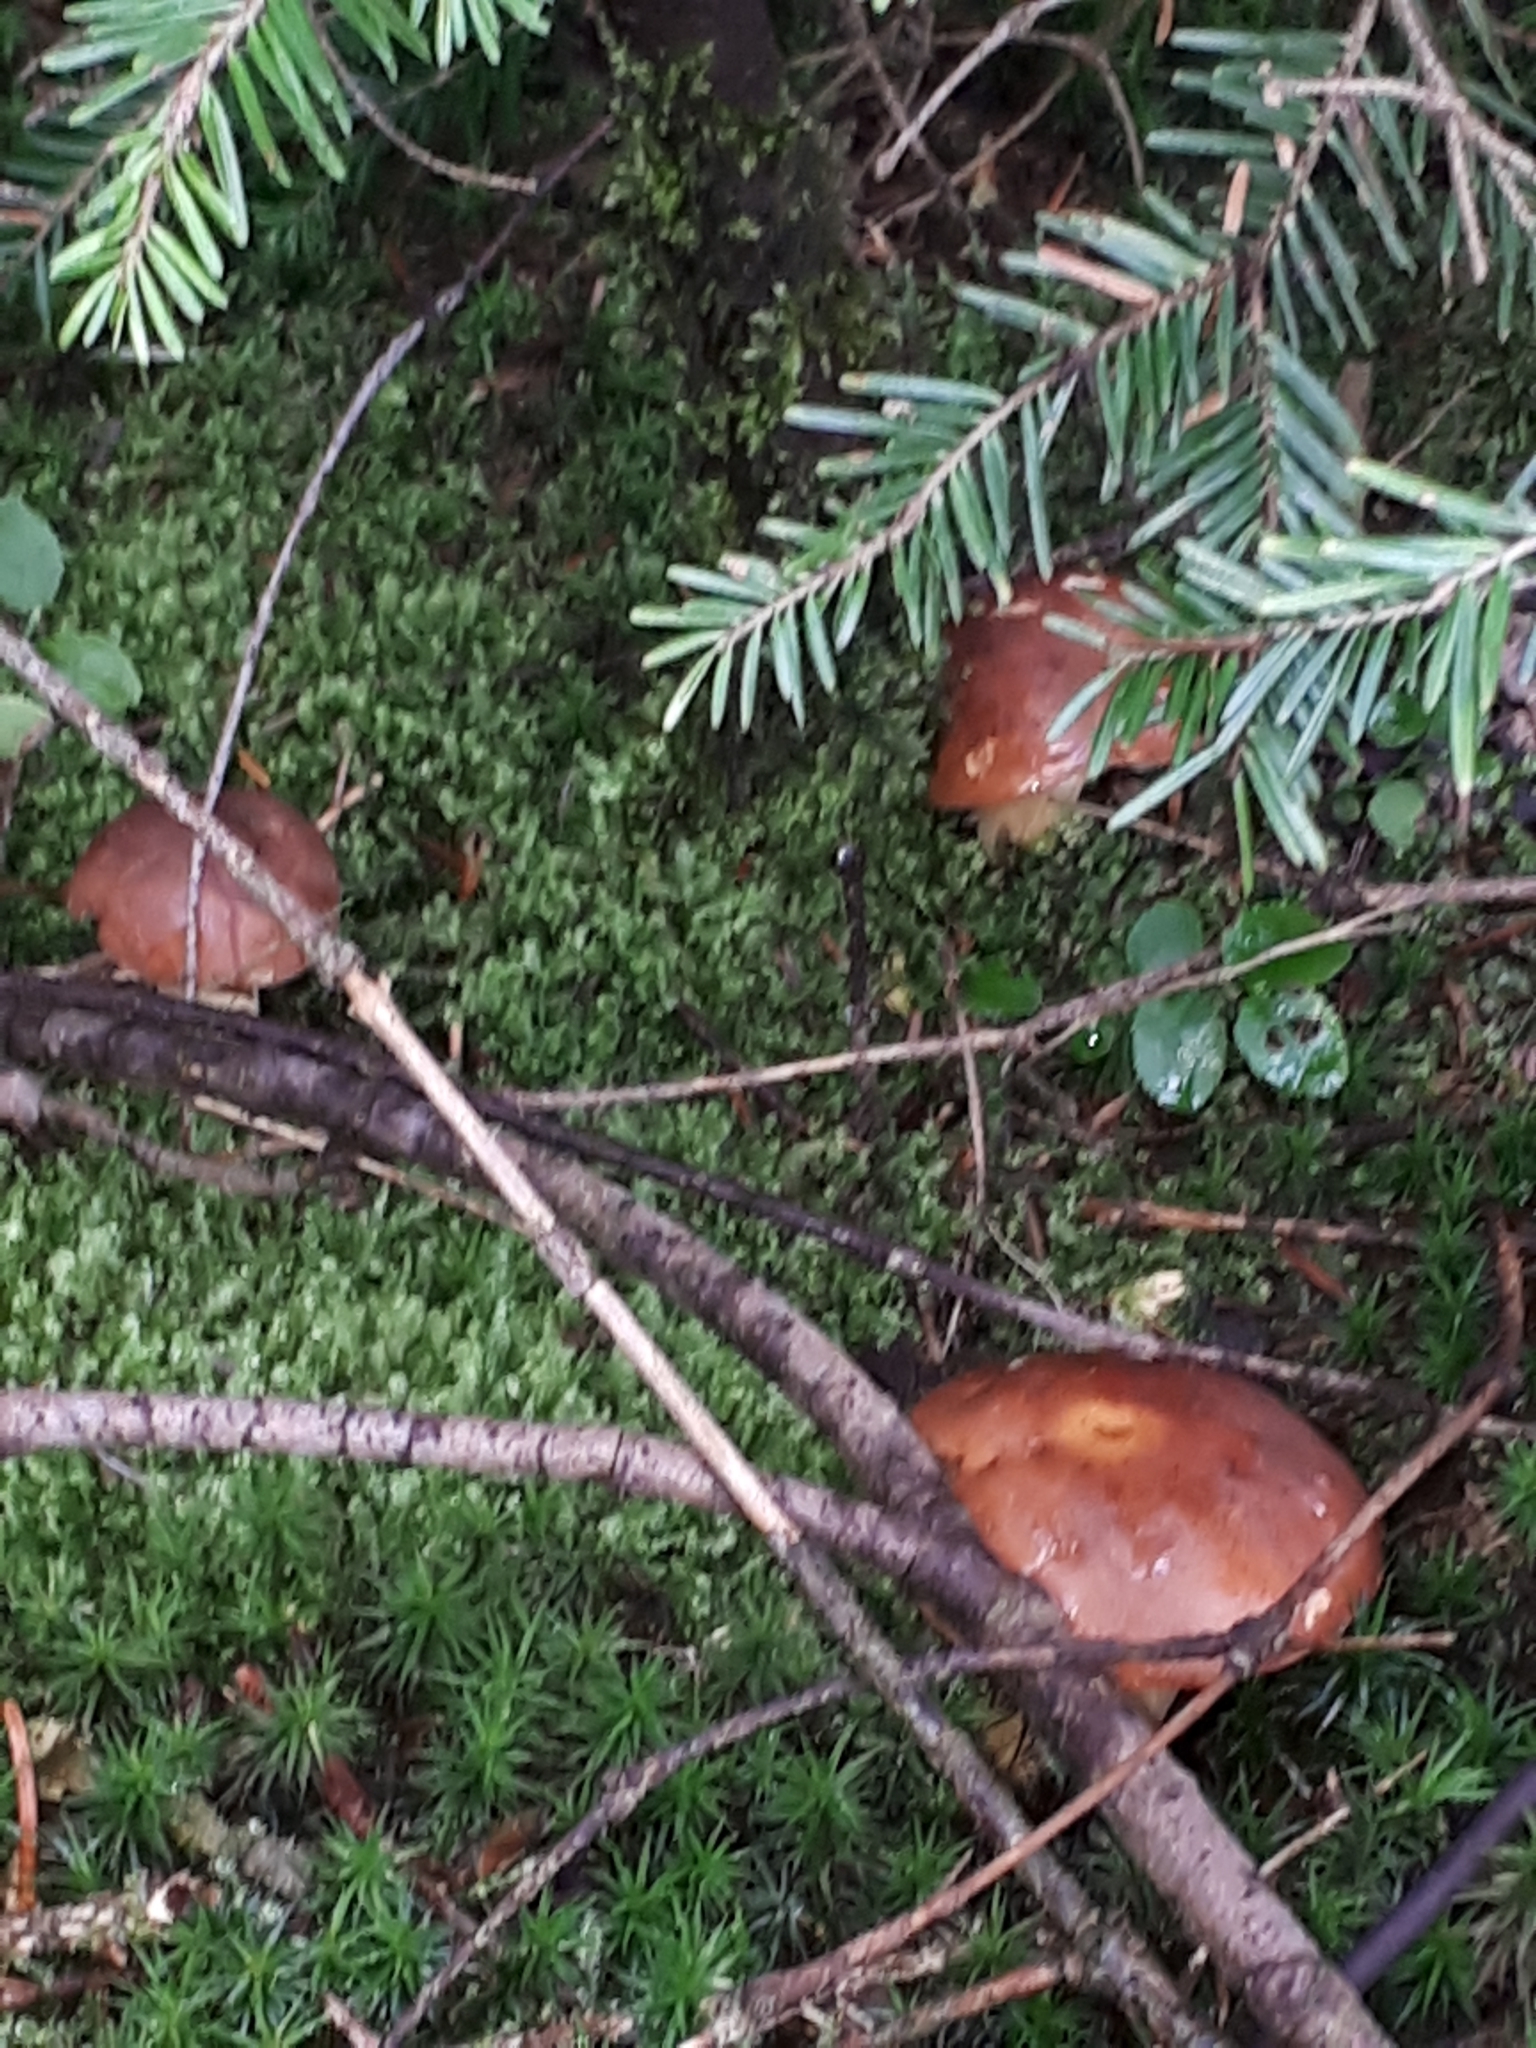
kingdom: Fungi
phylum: Basidiomycota
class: Agaricomycetes
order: Boletales
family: Boletaceae
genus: Imleria
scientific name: Imleria badia
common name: Bay bolete
